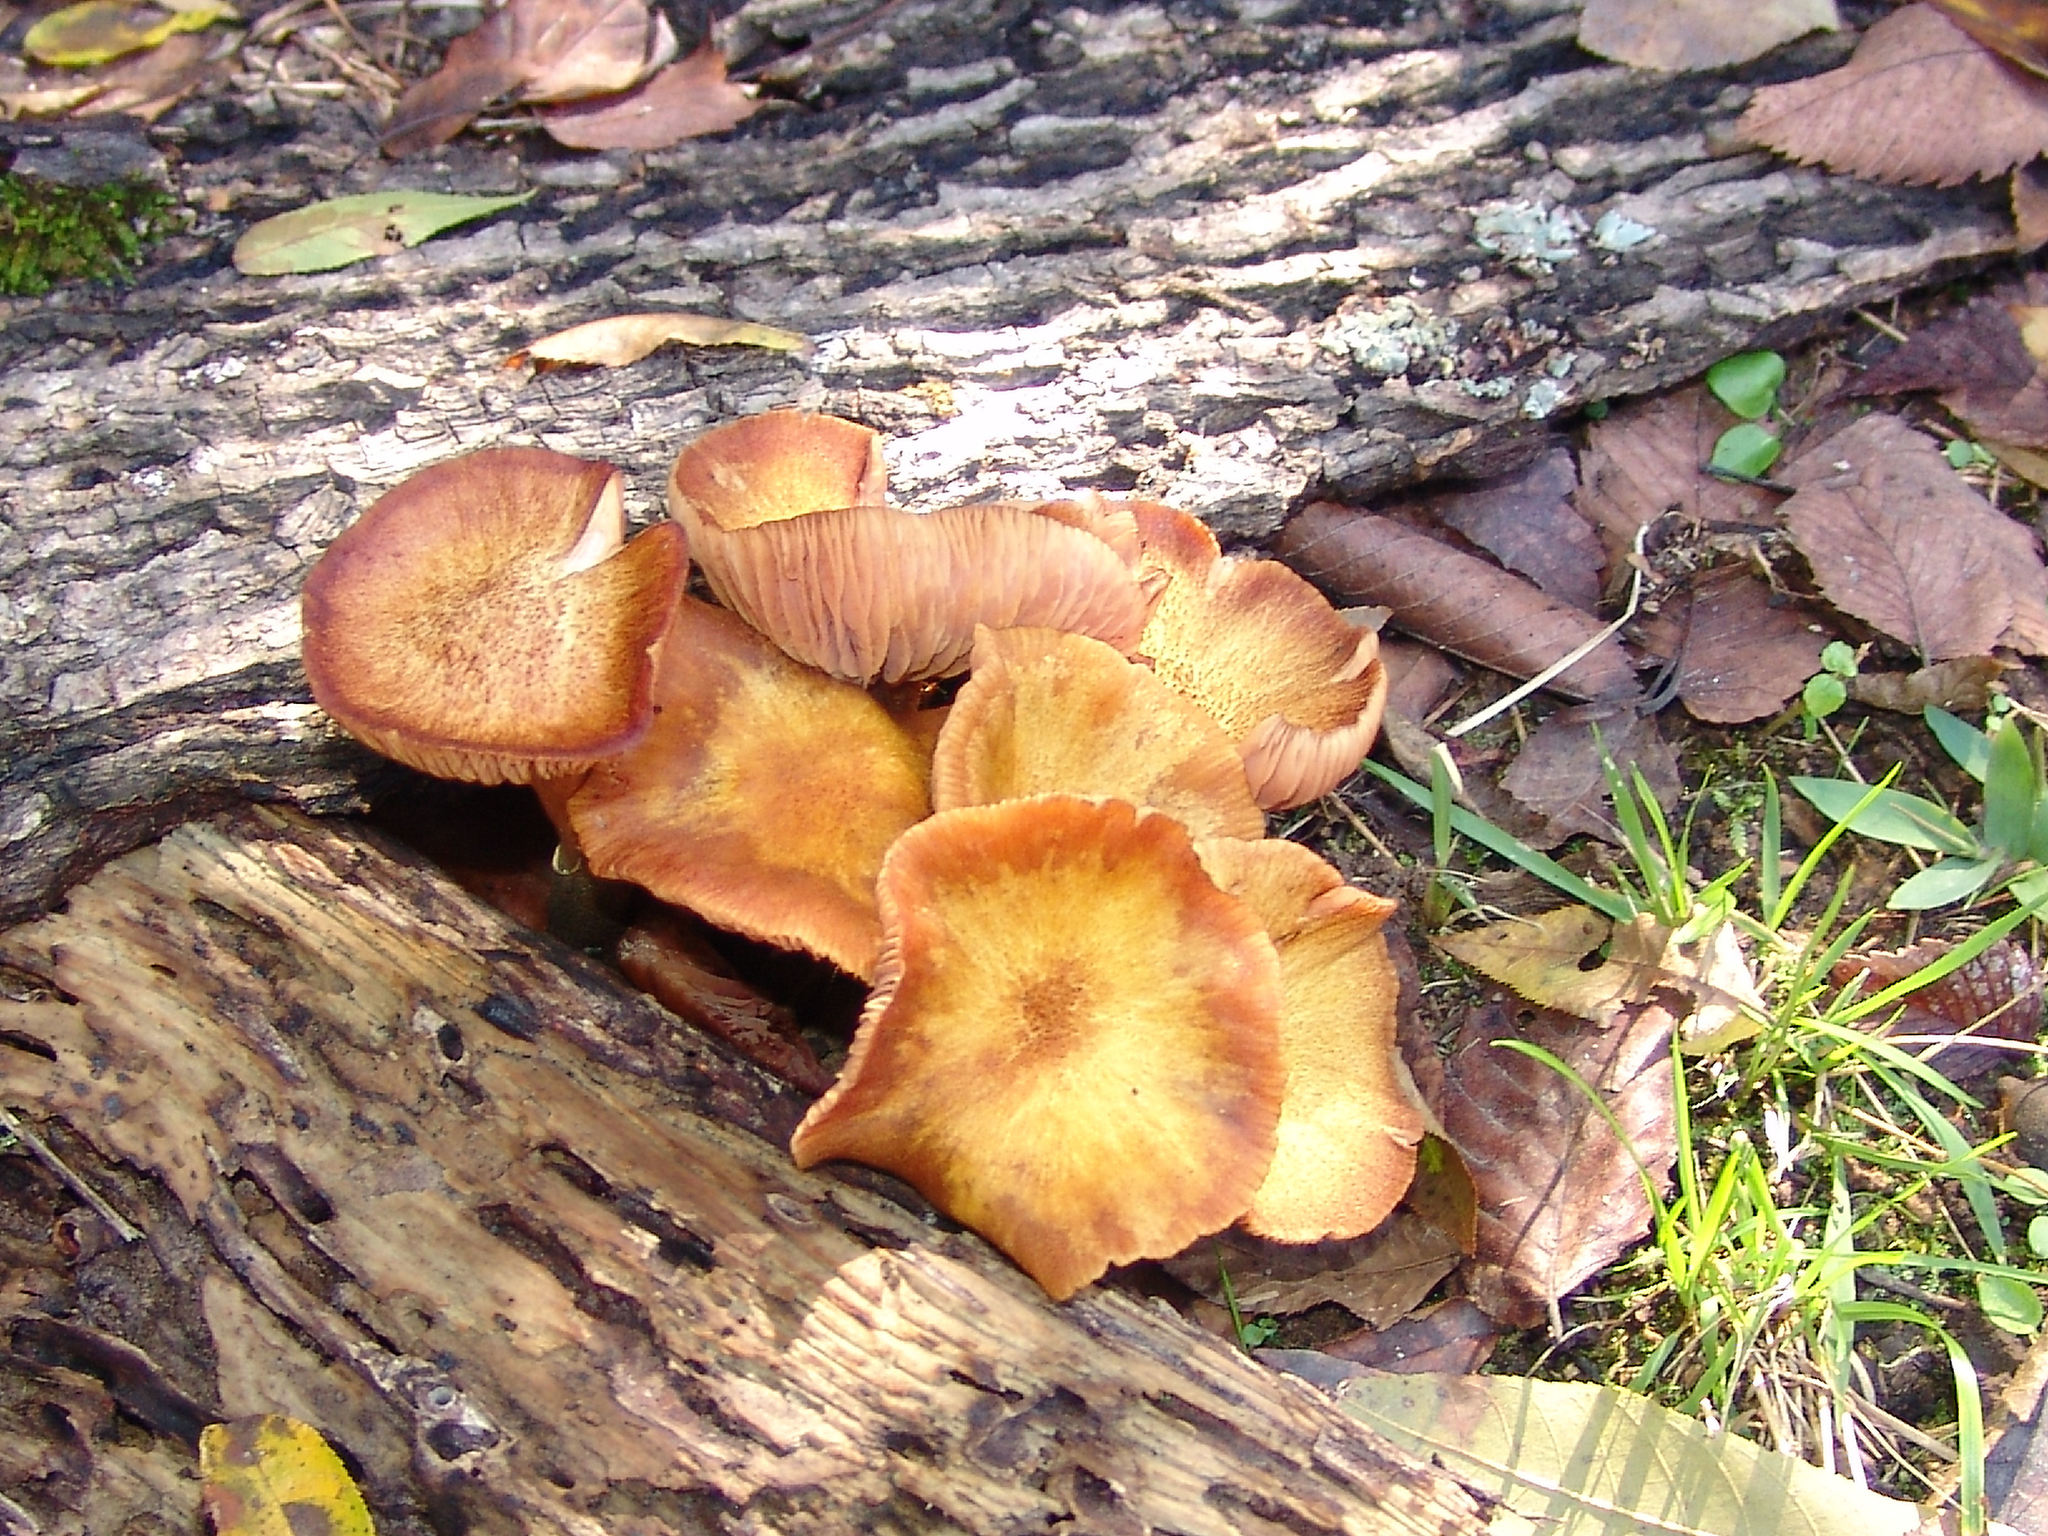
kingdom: Fungi
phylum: Basidiomycota
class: Agaricomycetes
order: Agaricales
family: Physalacriaceae
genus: Armillaria
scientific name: Armillaria mellea
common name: Honey fungus
